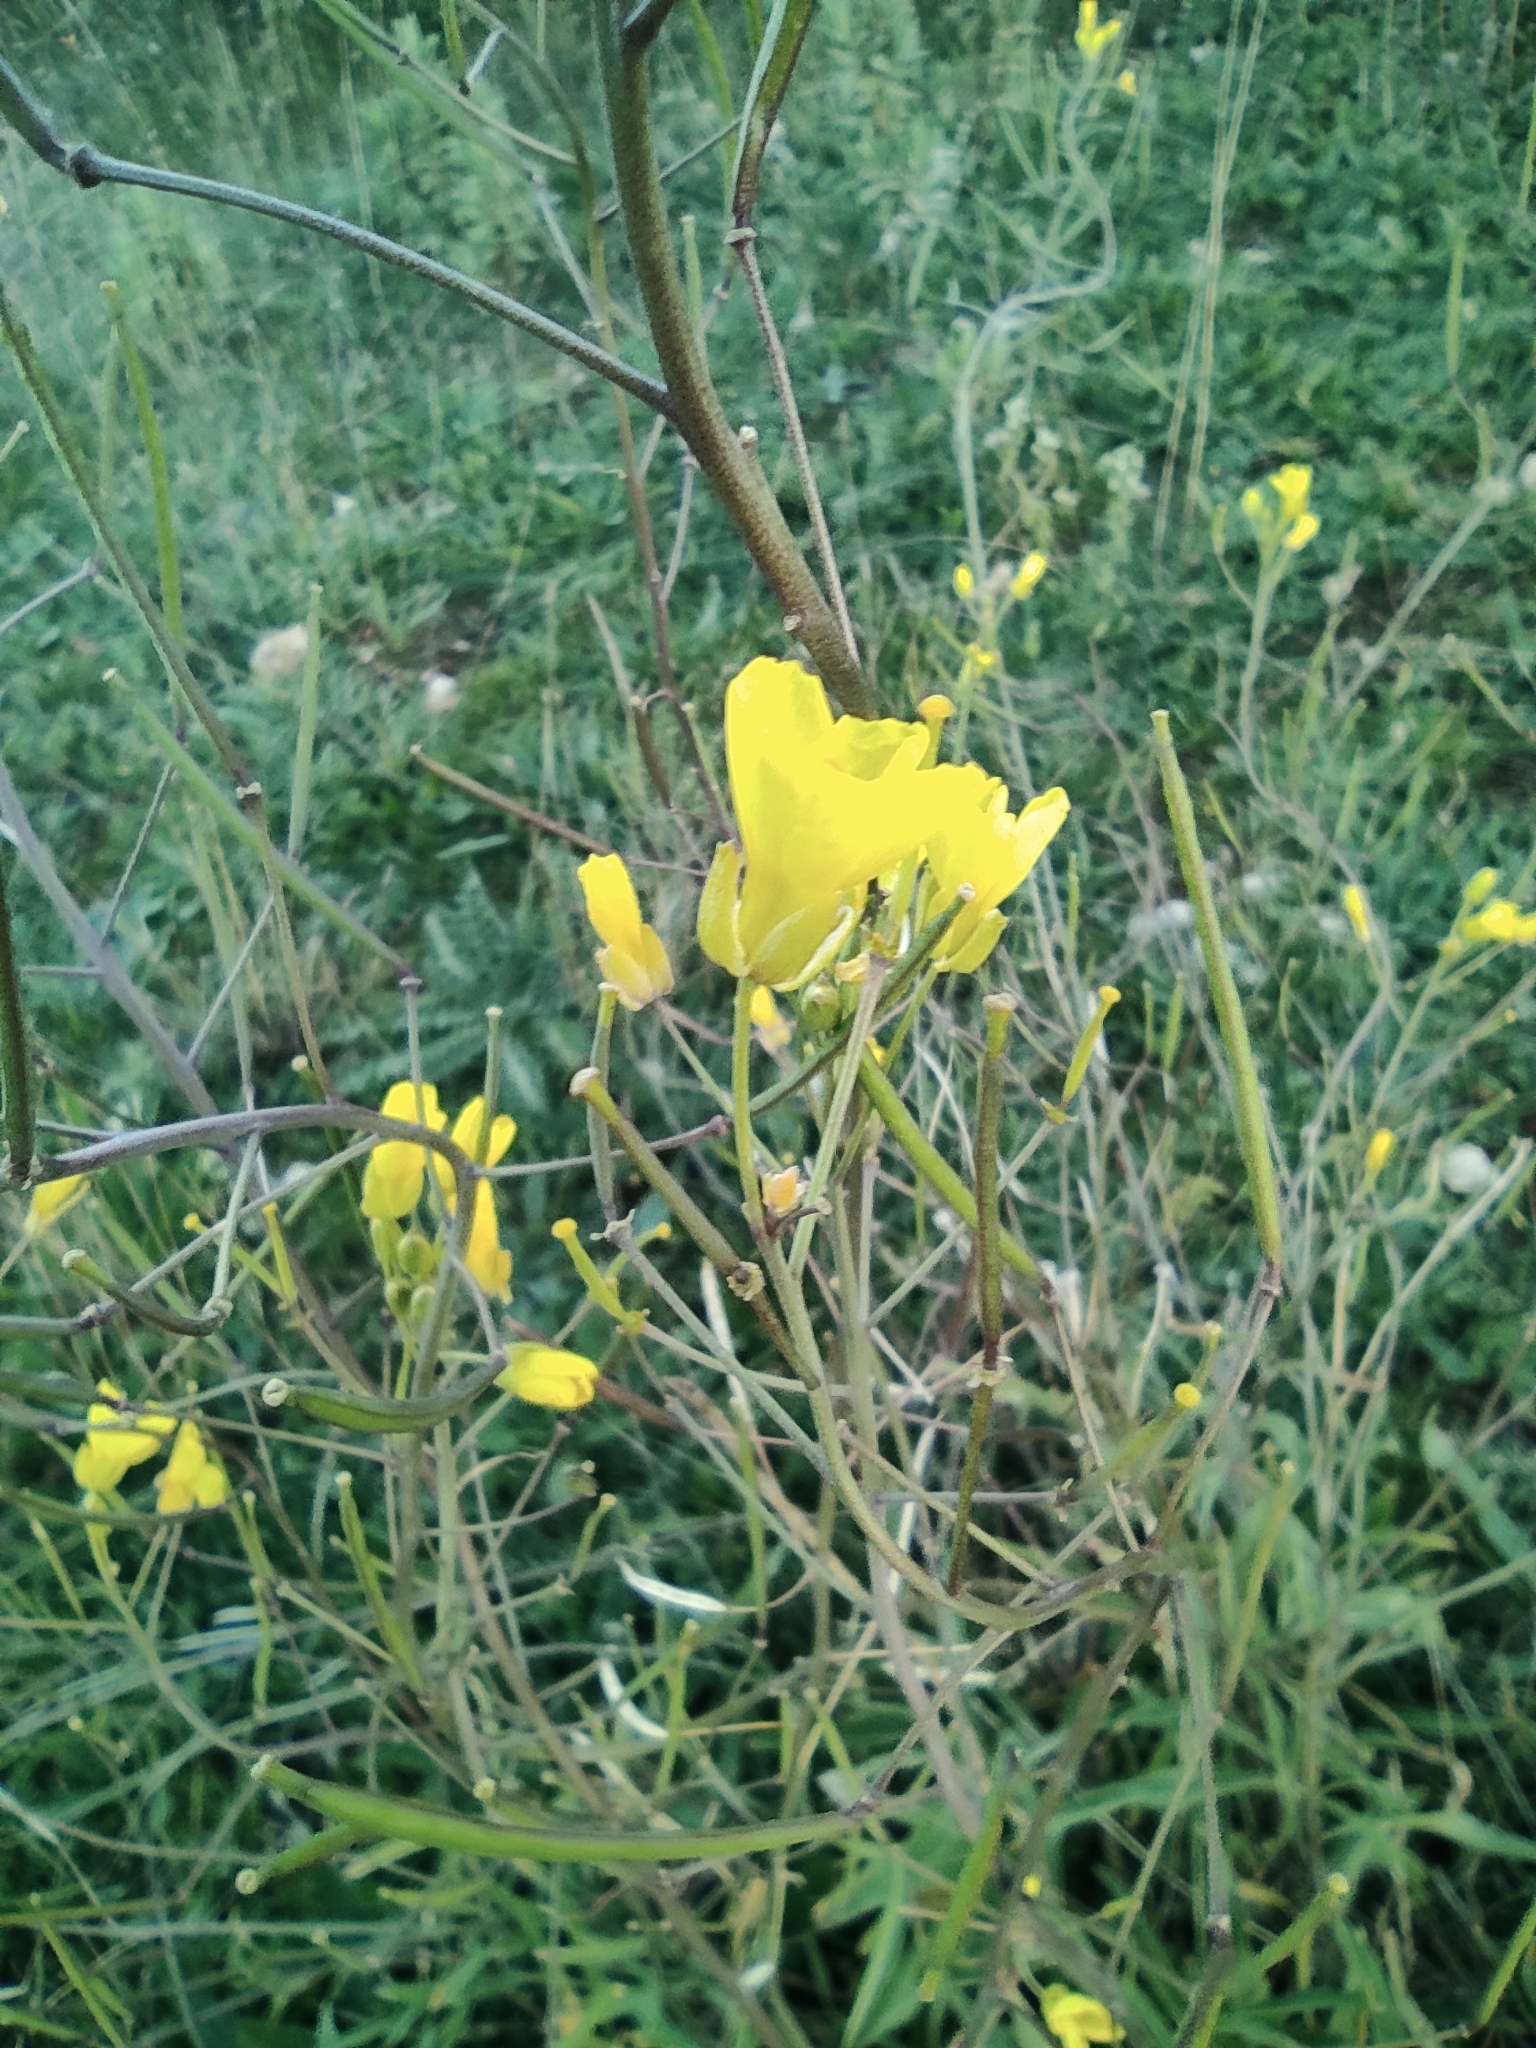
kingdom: Plantae
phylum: Tracheophyta
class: Magnoliopsida
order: Brassicales
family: Brassicaceae
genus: Diplotaxis
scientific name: Diplotaxis tenuifolia
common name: Perennial wall-rocket
